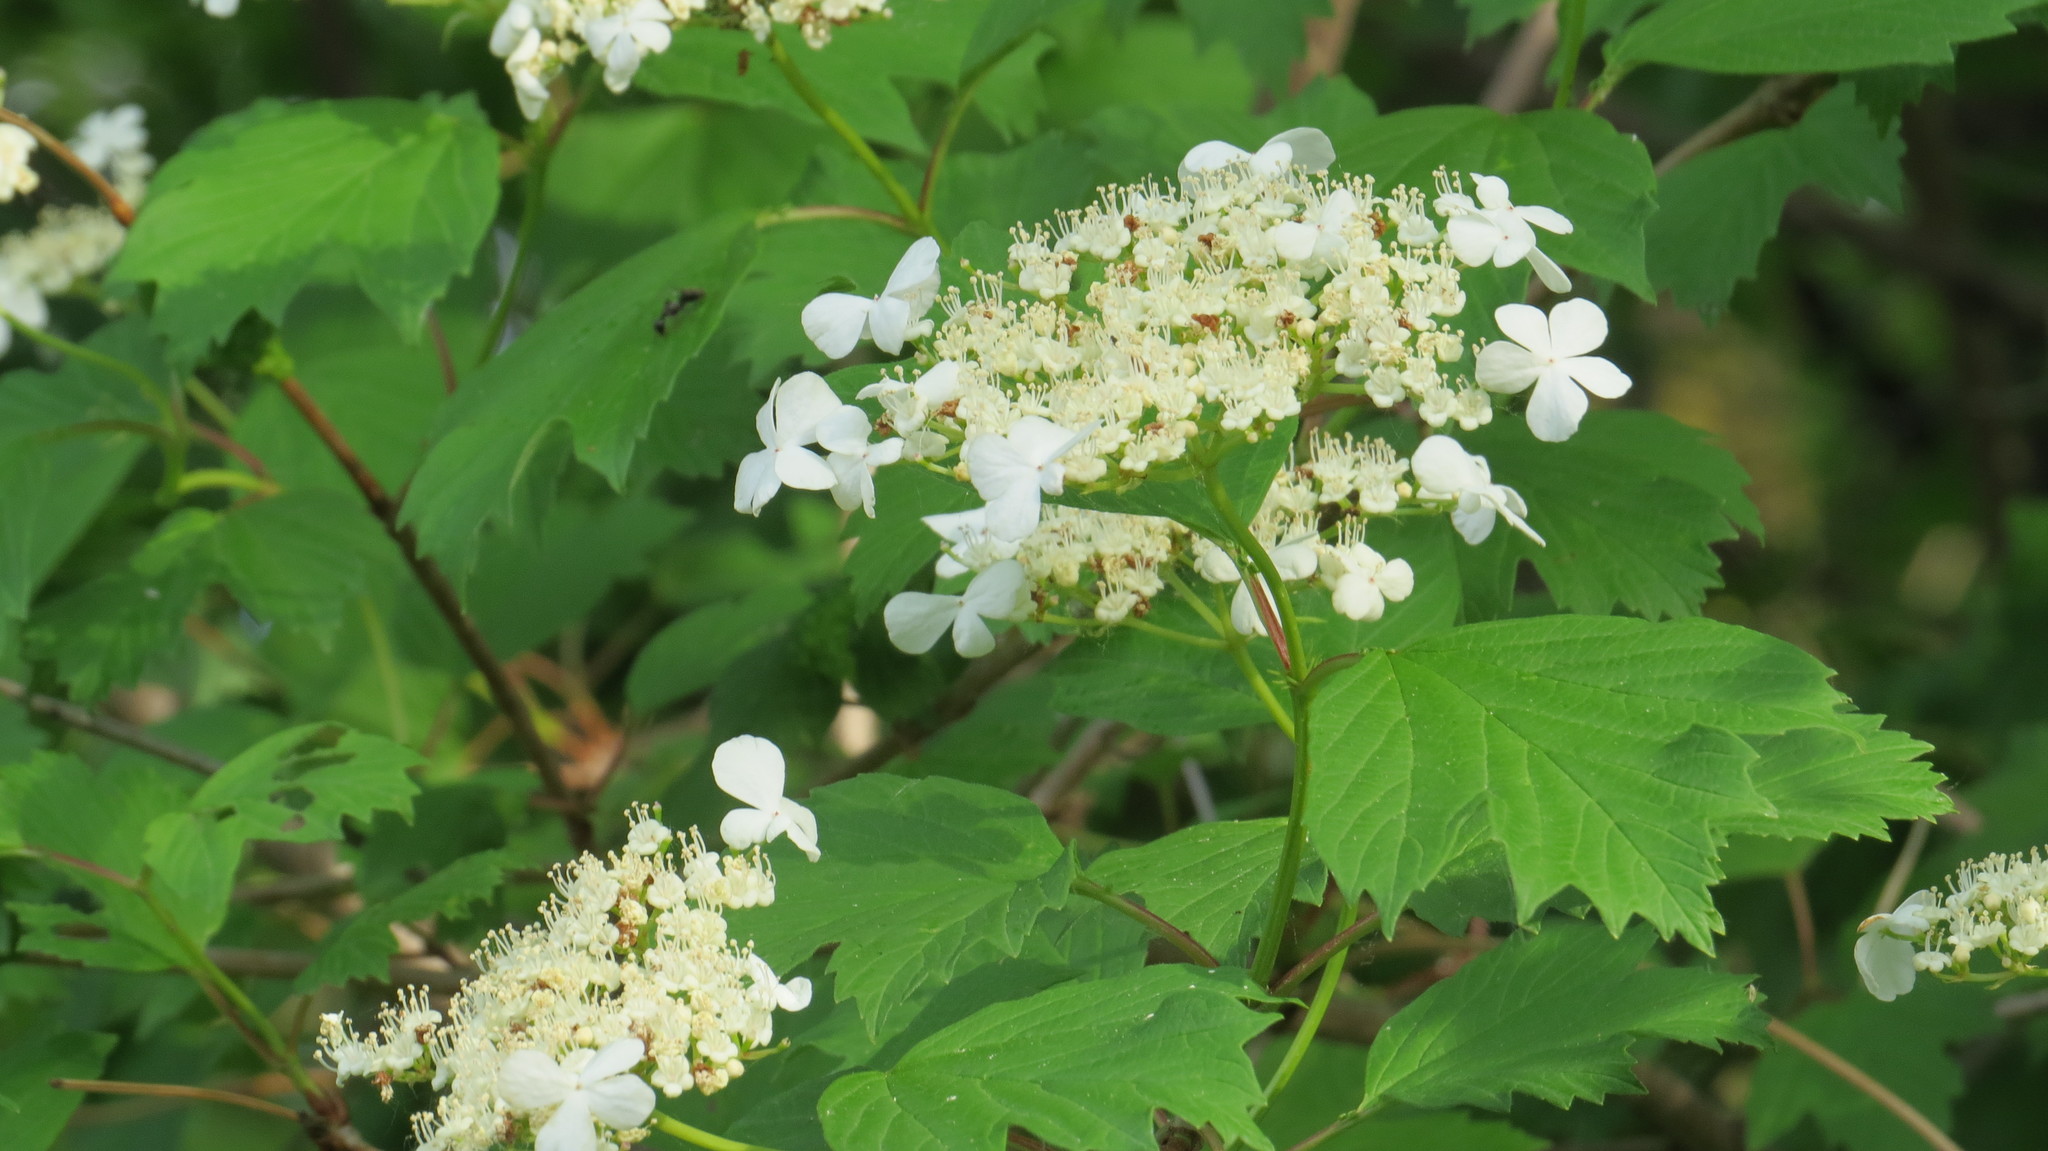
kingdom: Plantae
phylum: Tracheophyta
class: Magnoliopsida
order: Dipsacales
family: Viburnaceae
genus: Viburnum
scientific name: Viburnum opulus
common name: Guelder-rose
